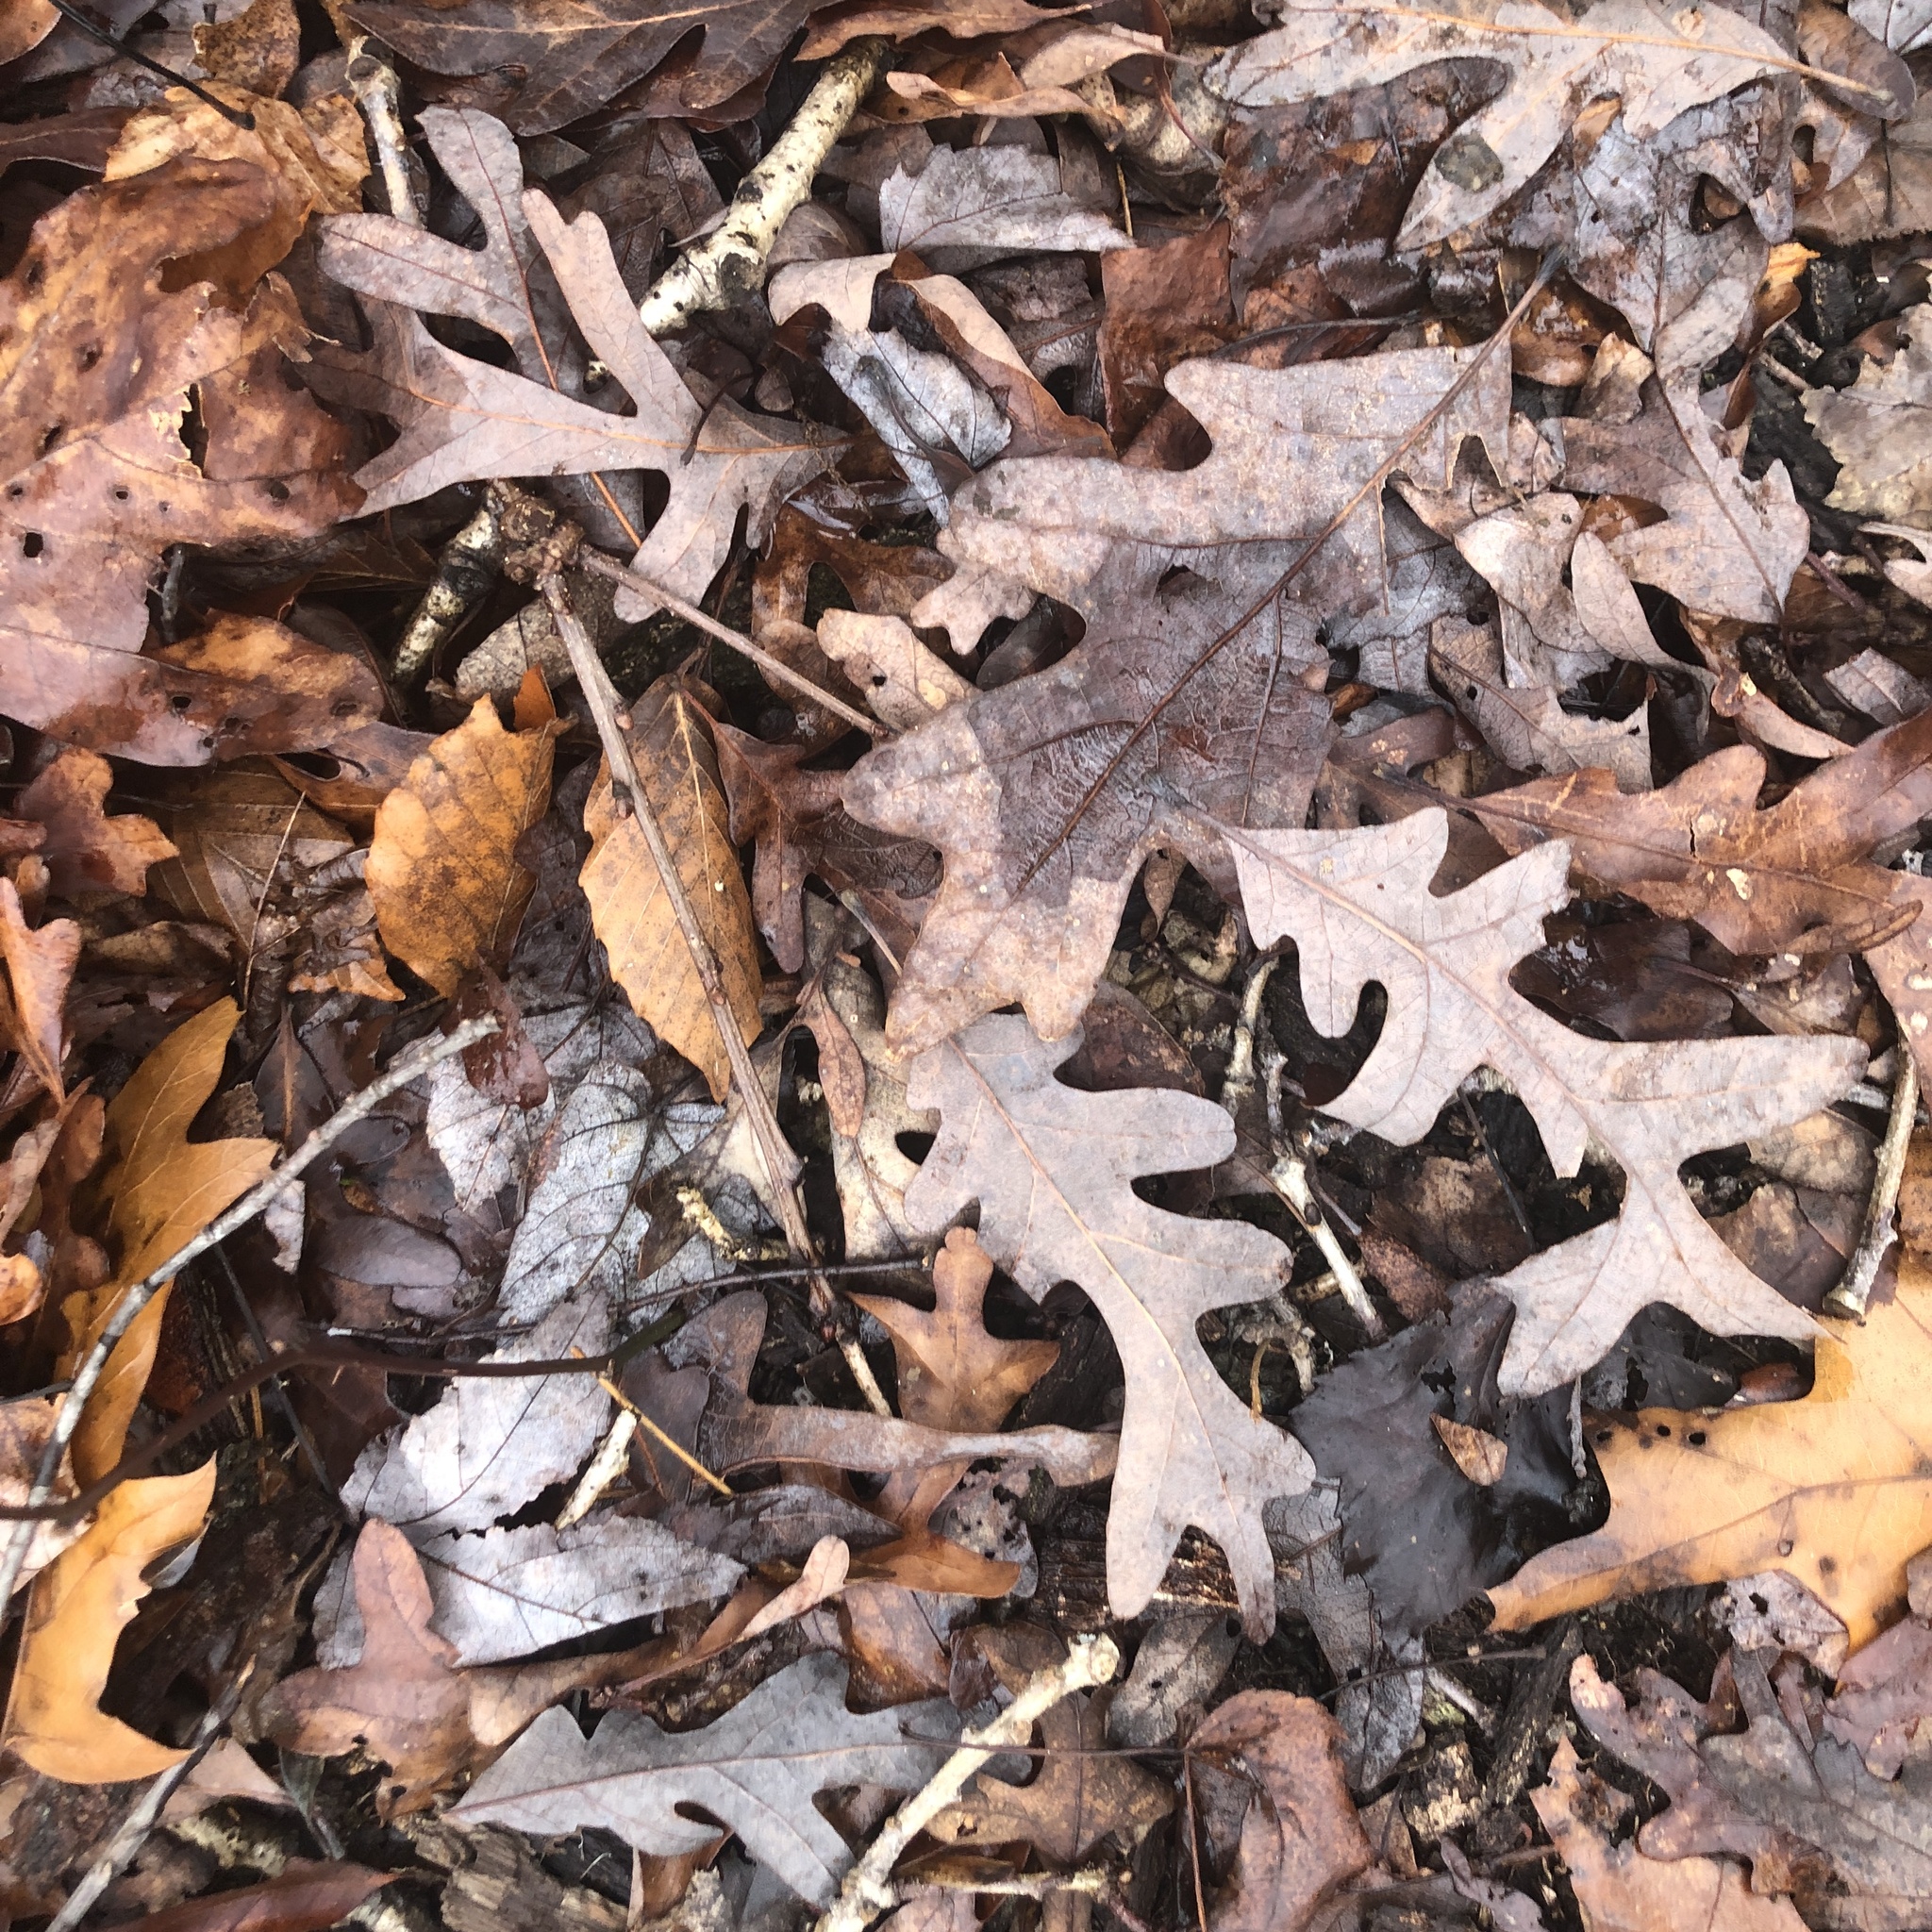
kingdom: Plantae
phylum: Tracheophyta
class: Magnoliopsida
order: Fagales
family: Fagaceae
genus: Quercus
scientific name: Quercus alba
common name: White oak
